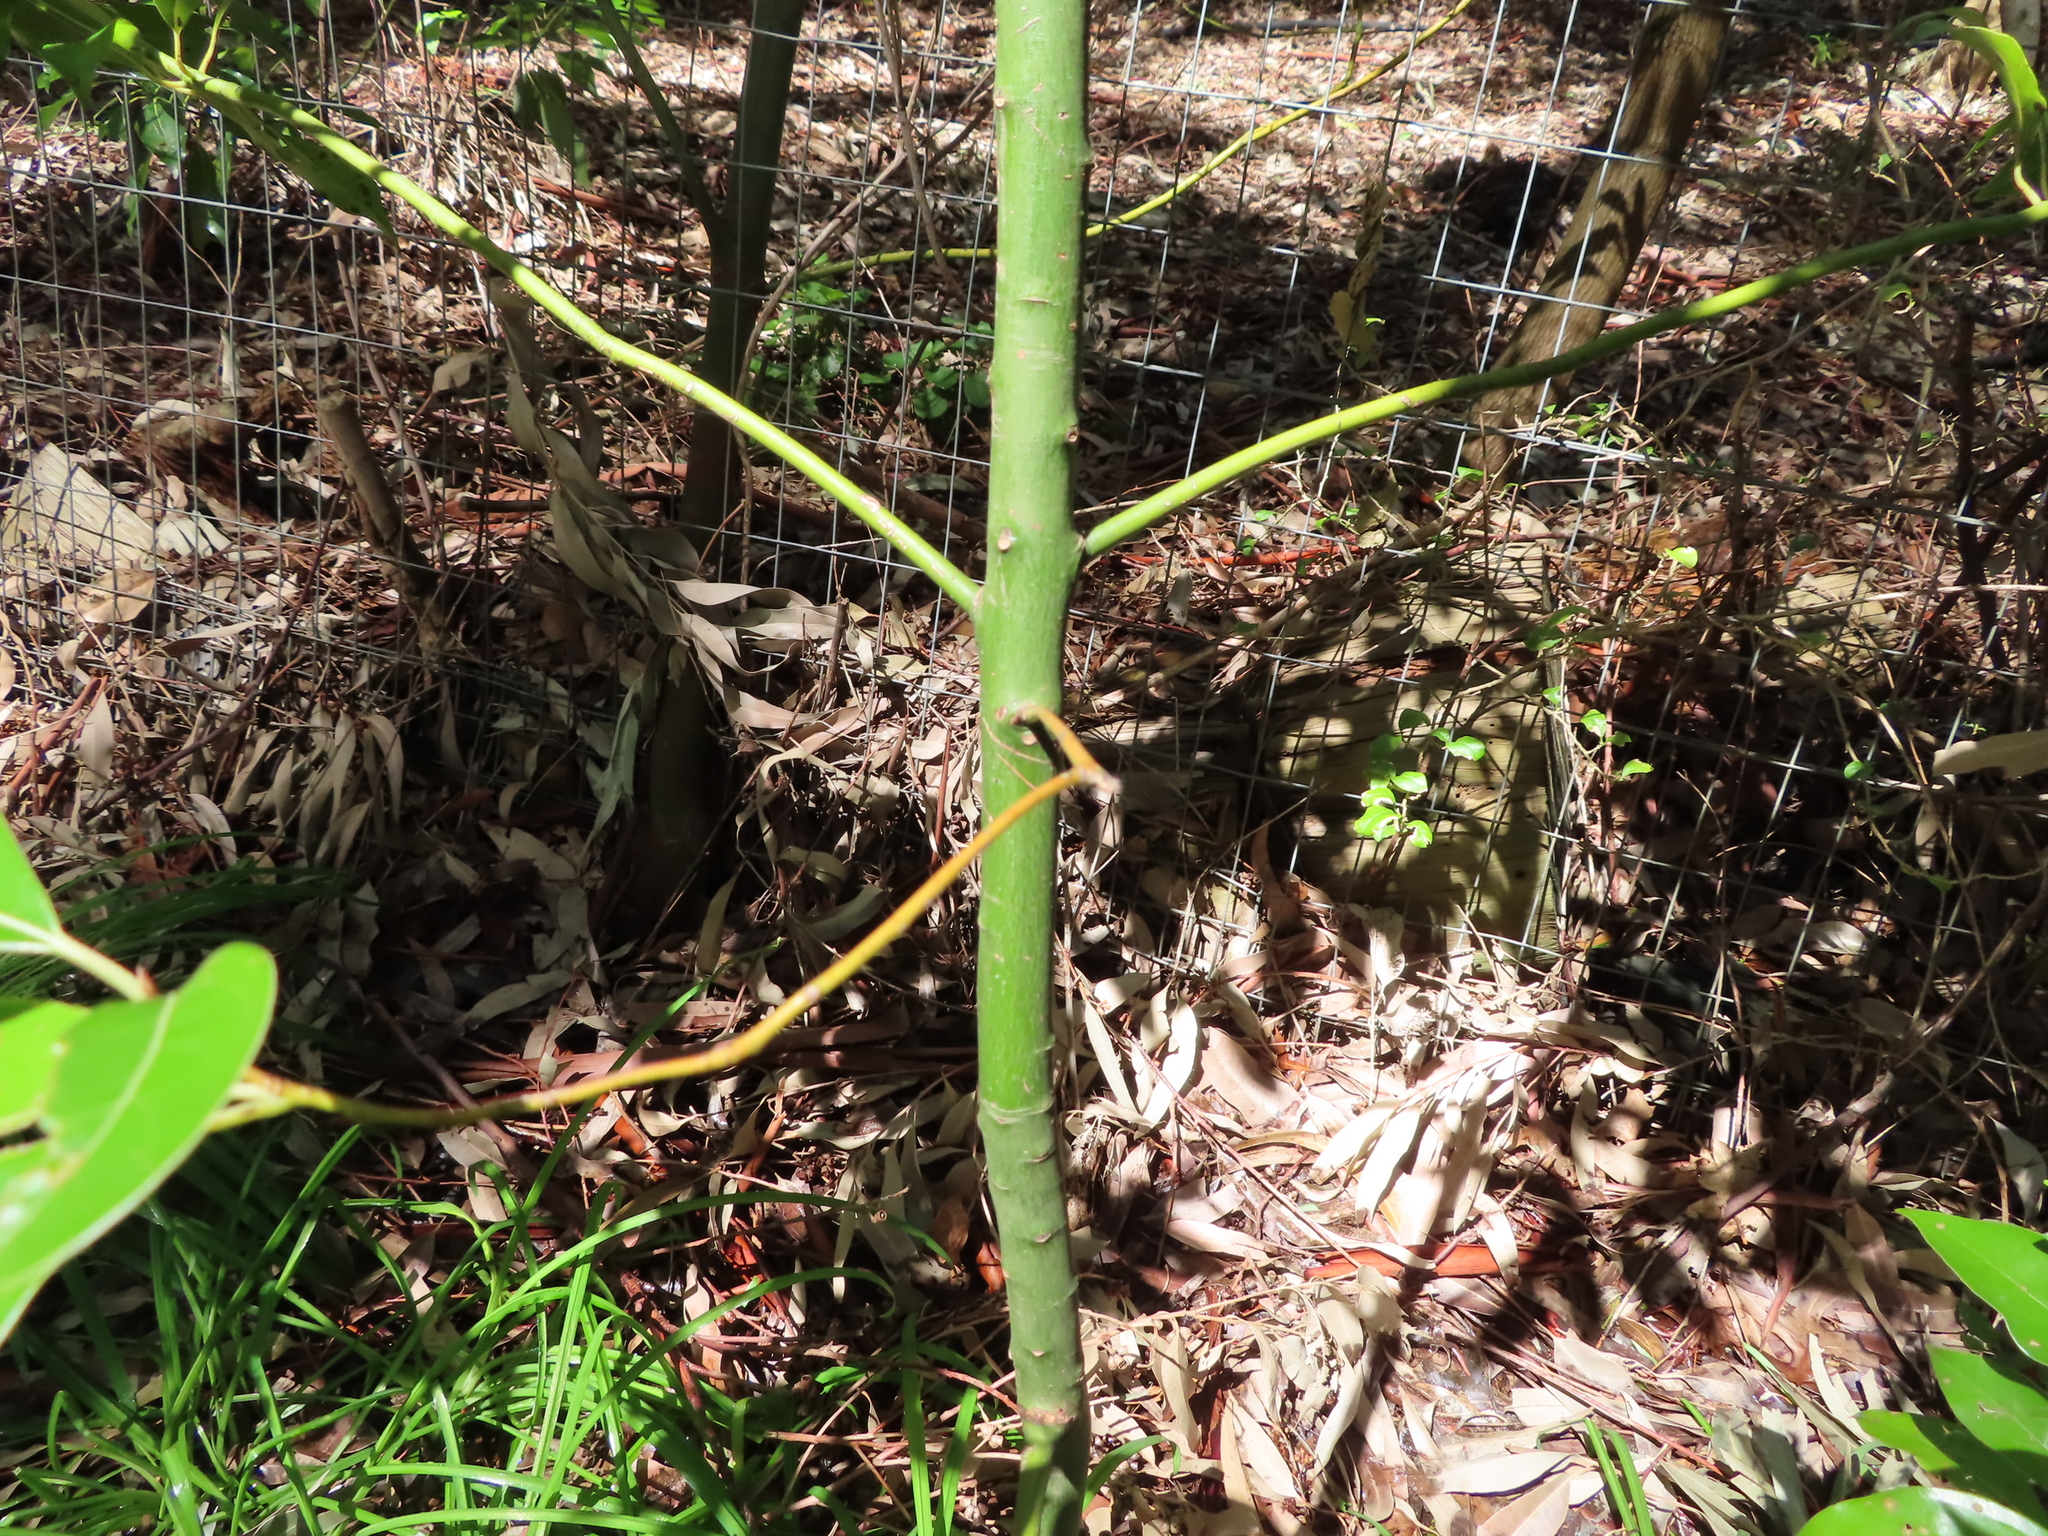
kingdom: Plantae
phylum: Tracheophyta
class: Magnoliopsida
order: Laurales
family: Lauraceae
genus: Cinnamomum
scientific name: Cinnamomum camphora
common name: Camphortree
